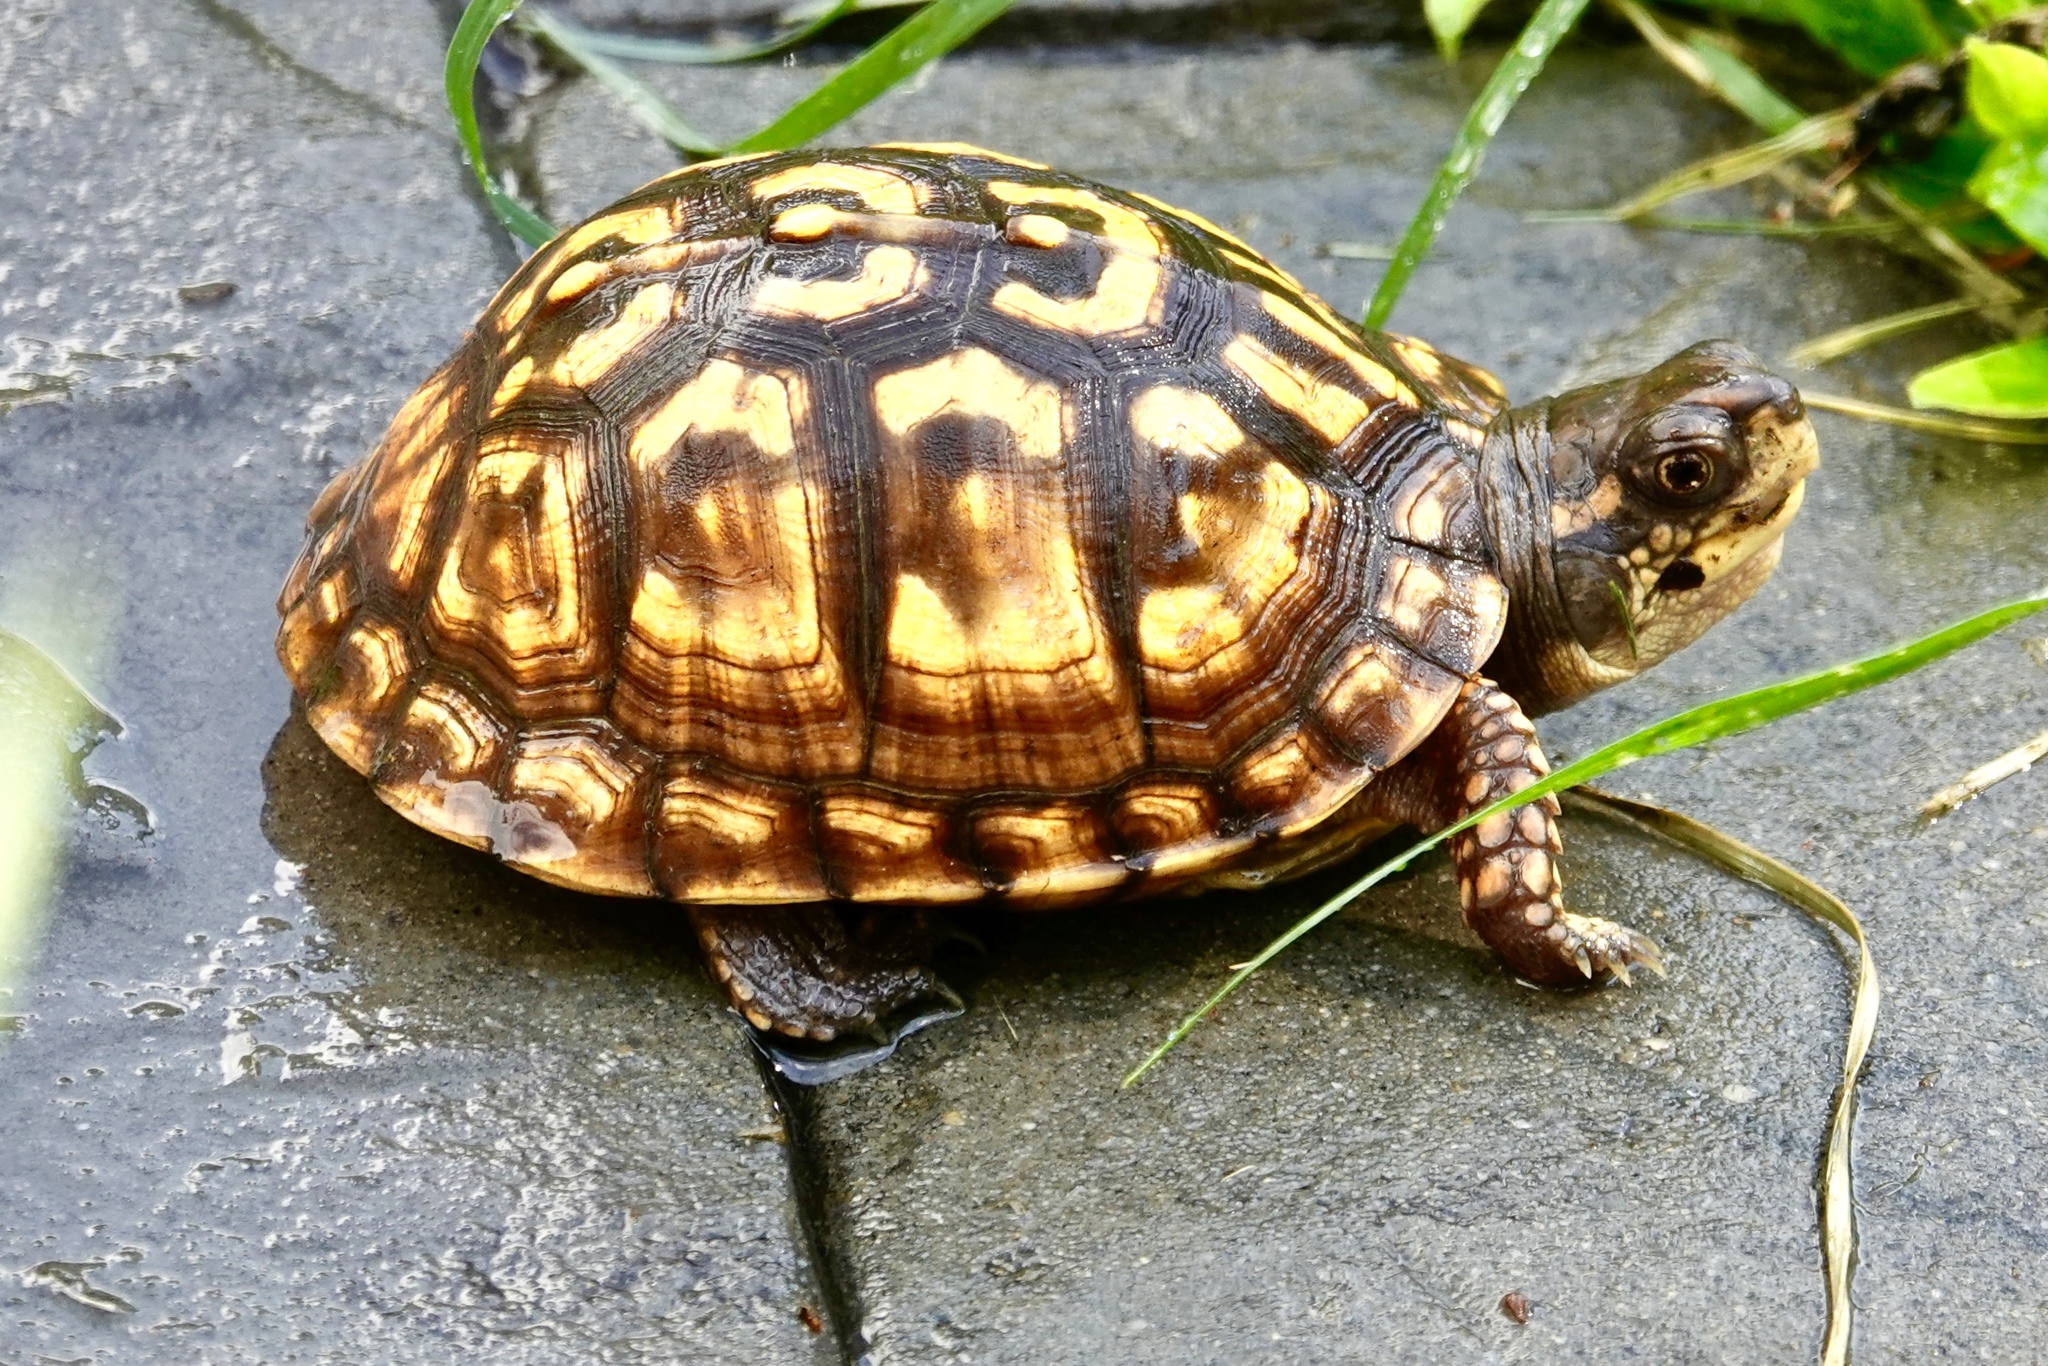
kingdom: Animalia
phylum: Chordata
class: Testudines
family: Emydidae
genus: Terrapene
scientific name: Terrapene carolina
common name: Common box turtle
